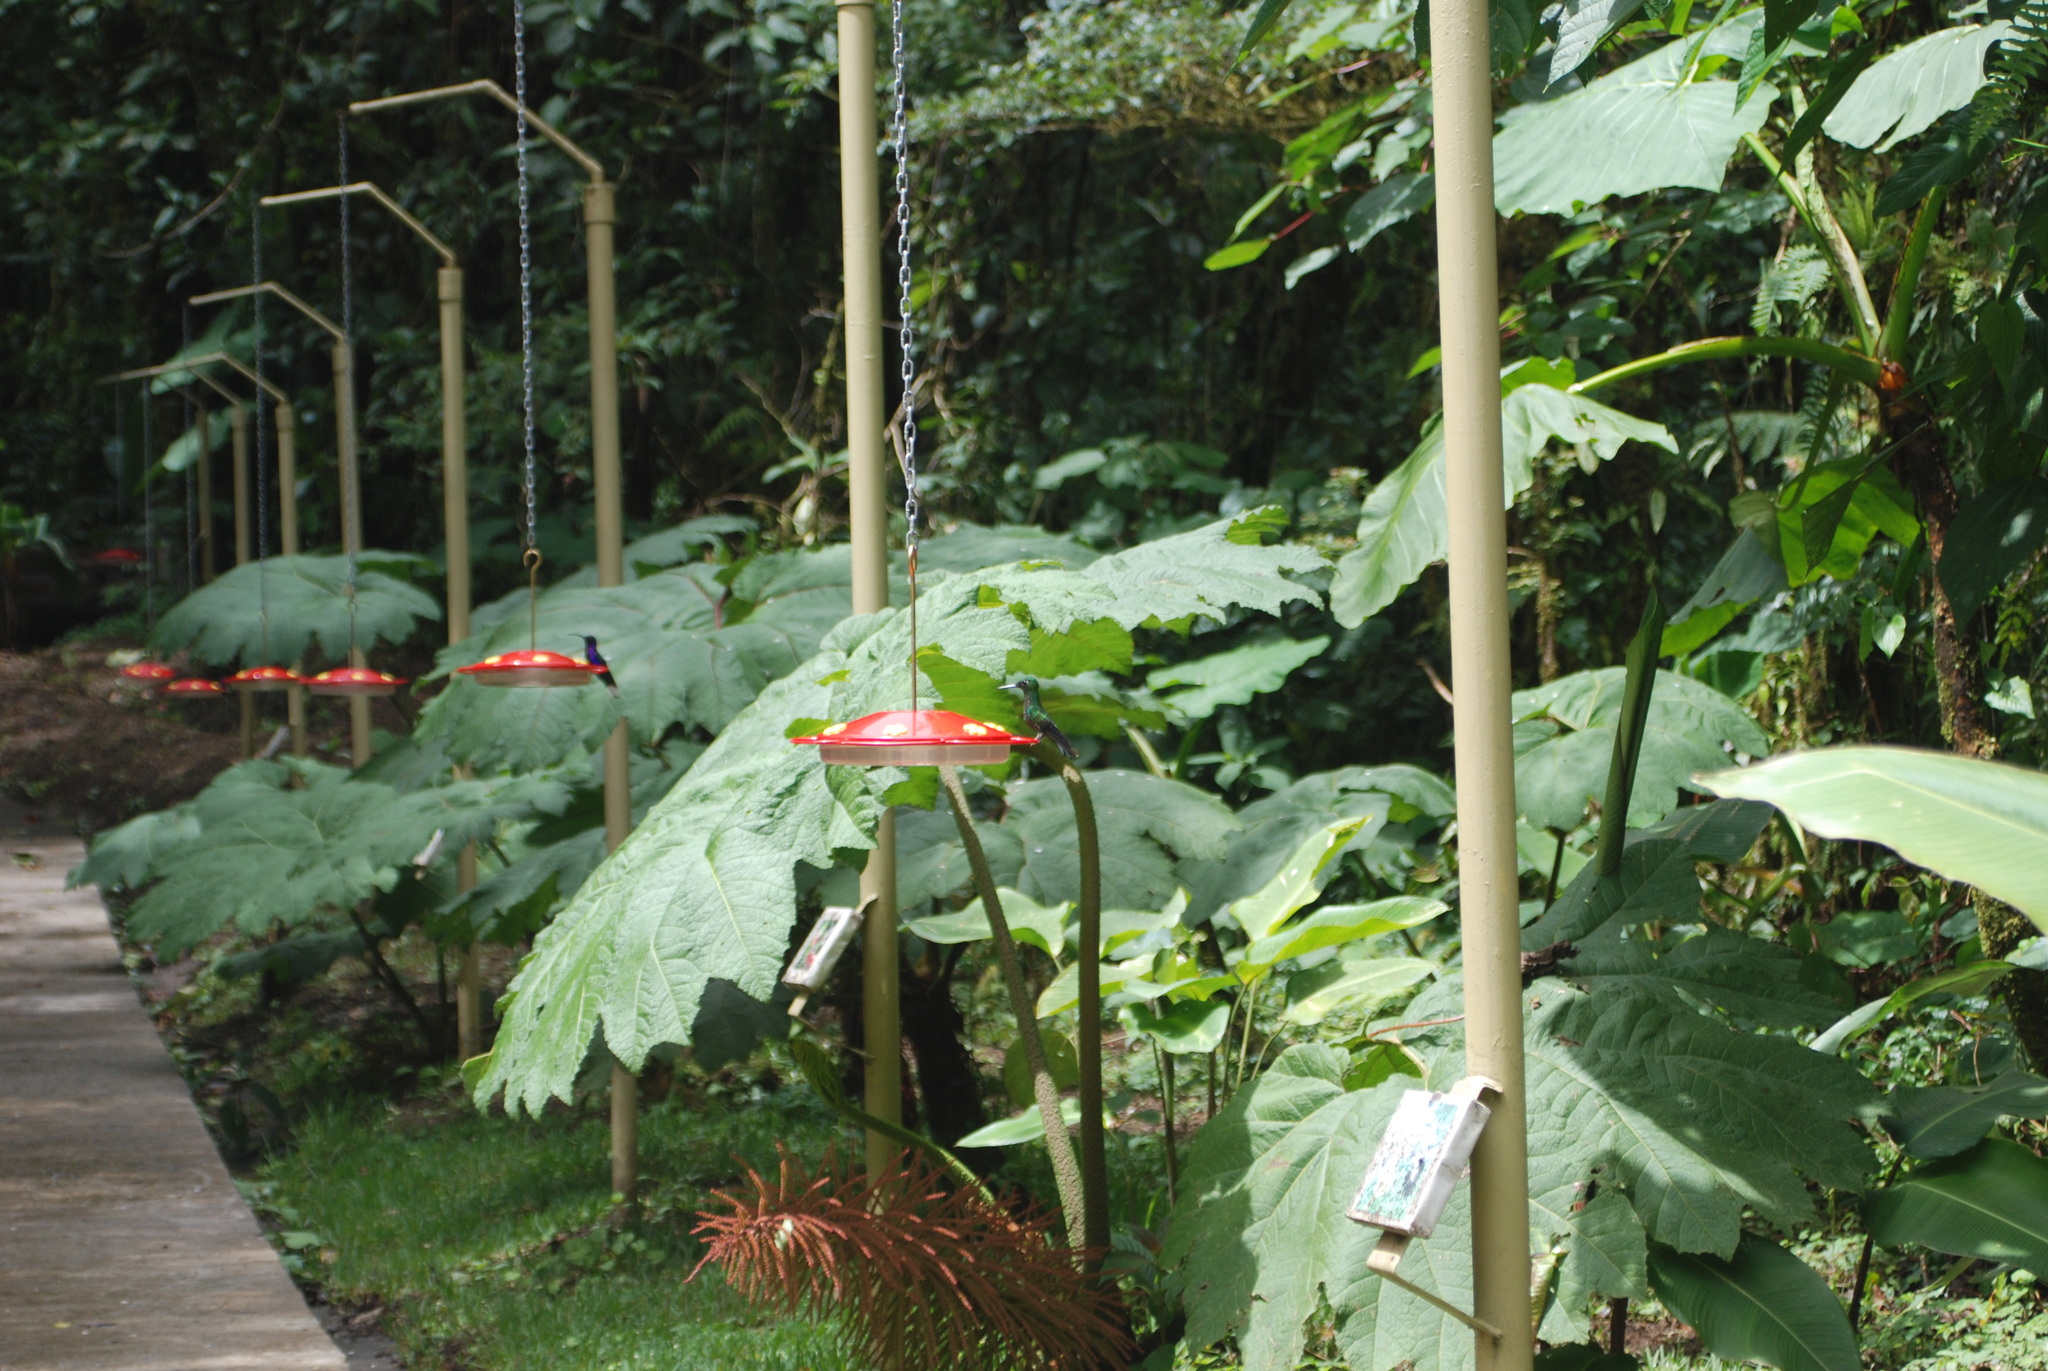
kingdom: Animalia
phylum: Chordata
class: Aves
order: Apodiformes
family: Trochilidae
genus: Campylopterus
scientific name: Campylopterus hemileucurus
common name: Violet sabrewing
